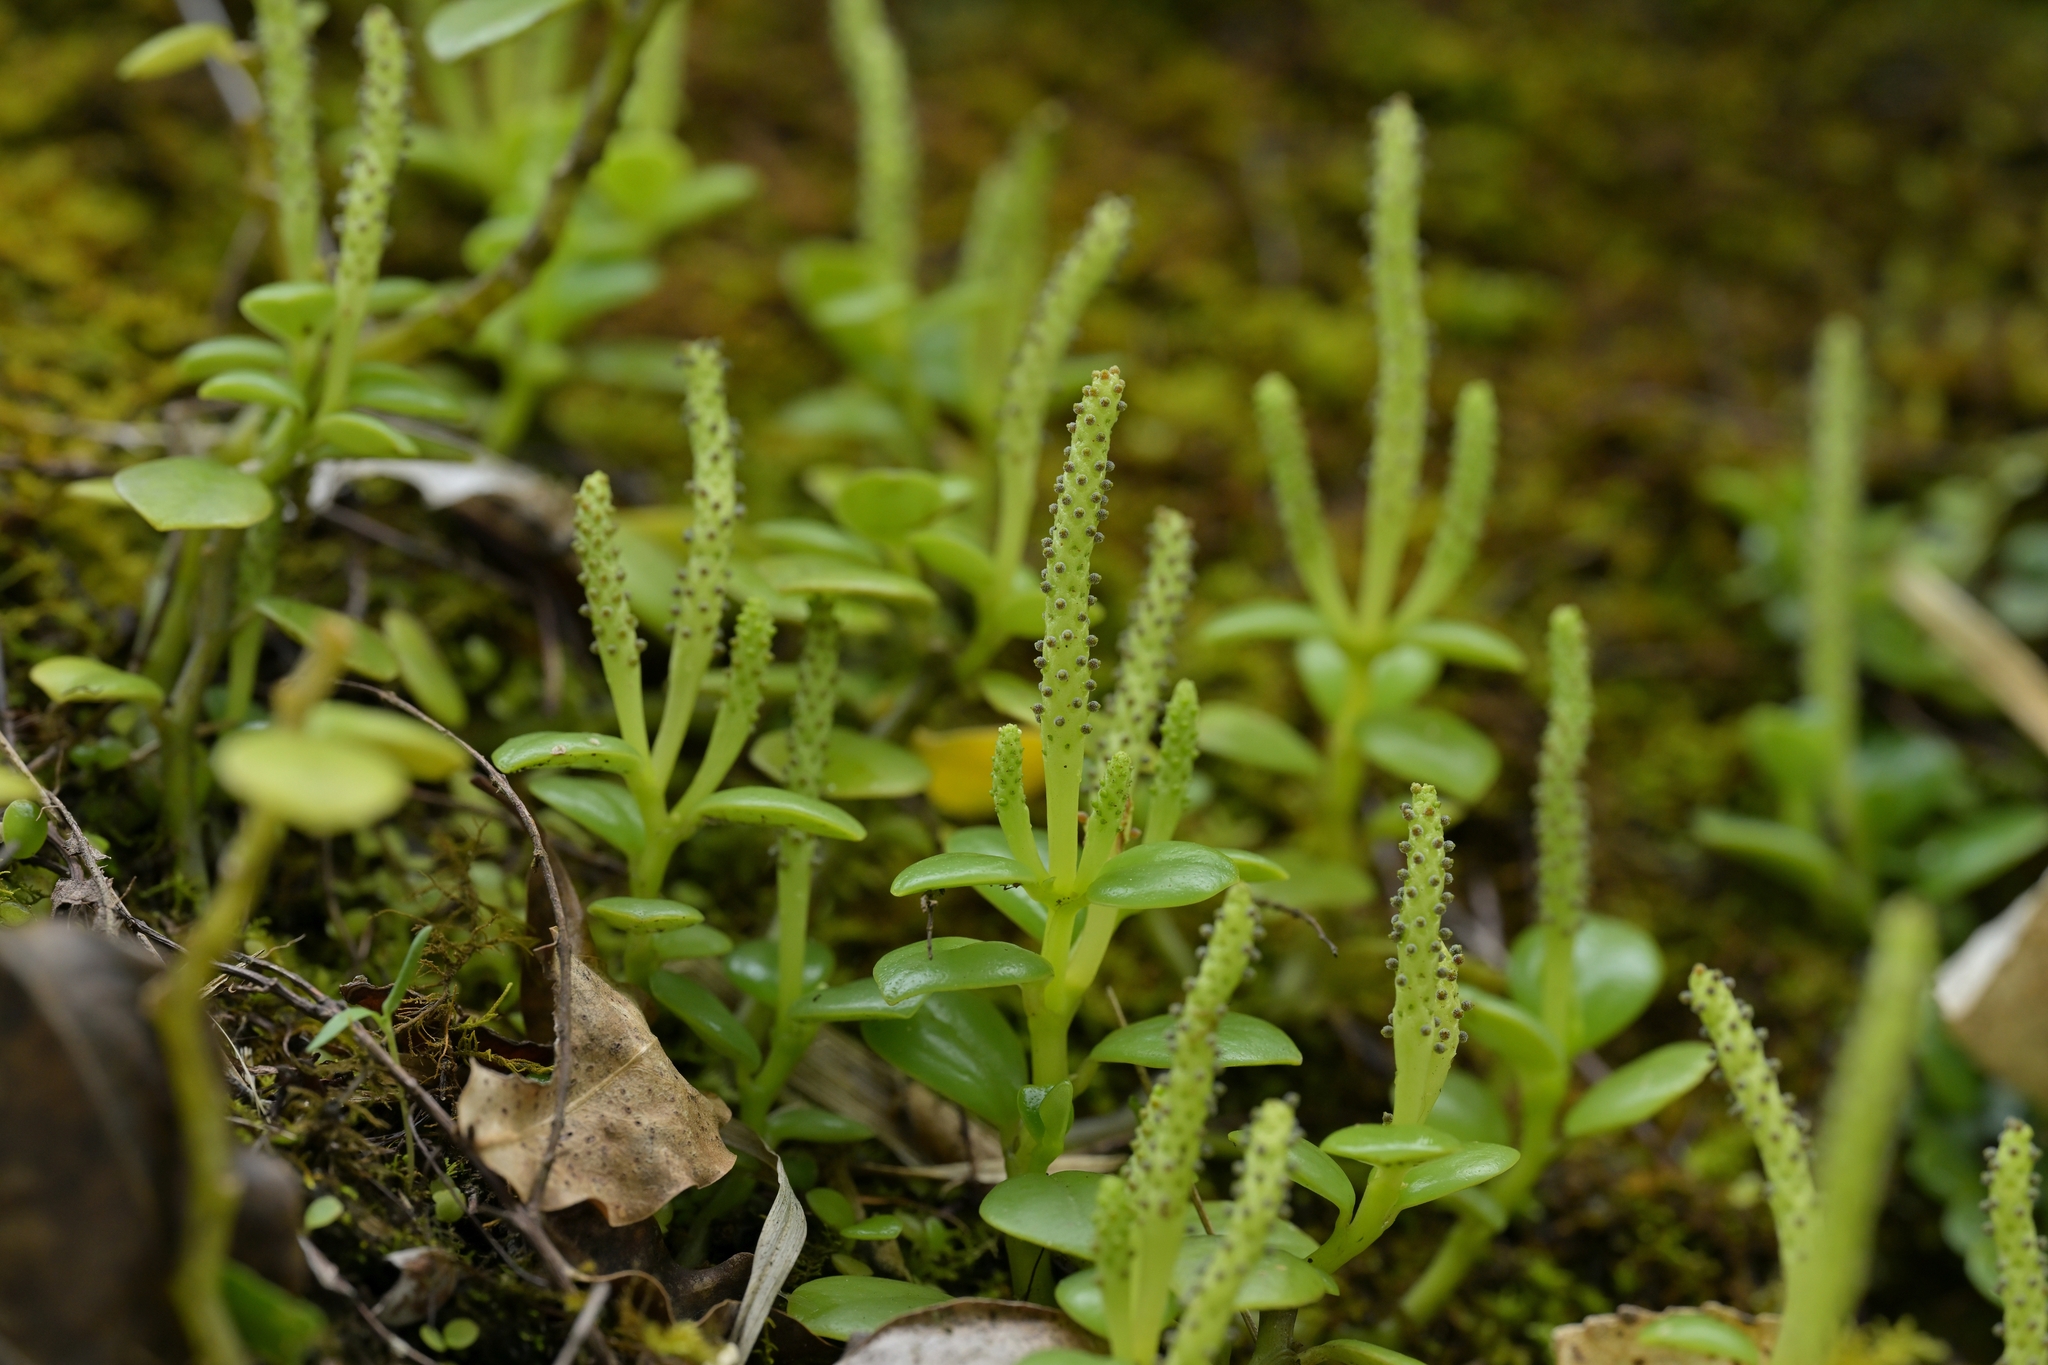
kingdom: Plantae
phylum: Tracheophyta
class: Magnoliopsida
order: Piperales
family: Piperaceae
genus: Peperomia
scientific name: Peperomia urvilleana
